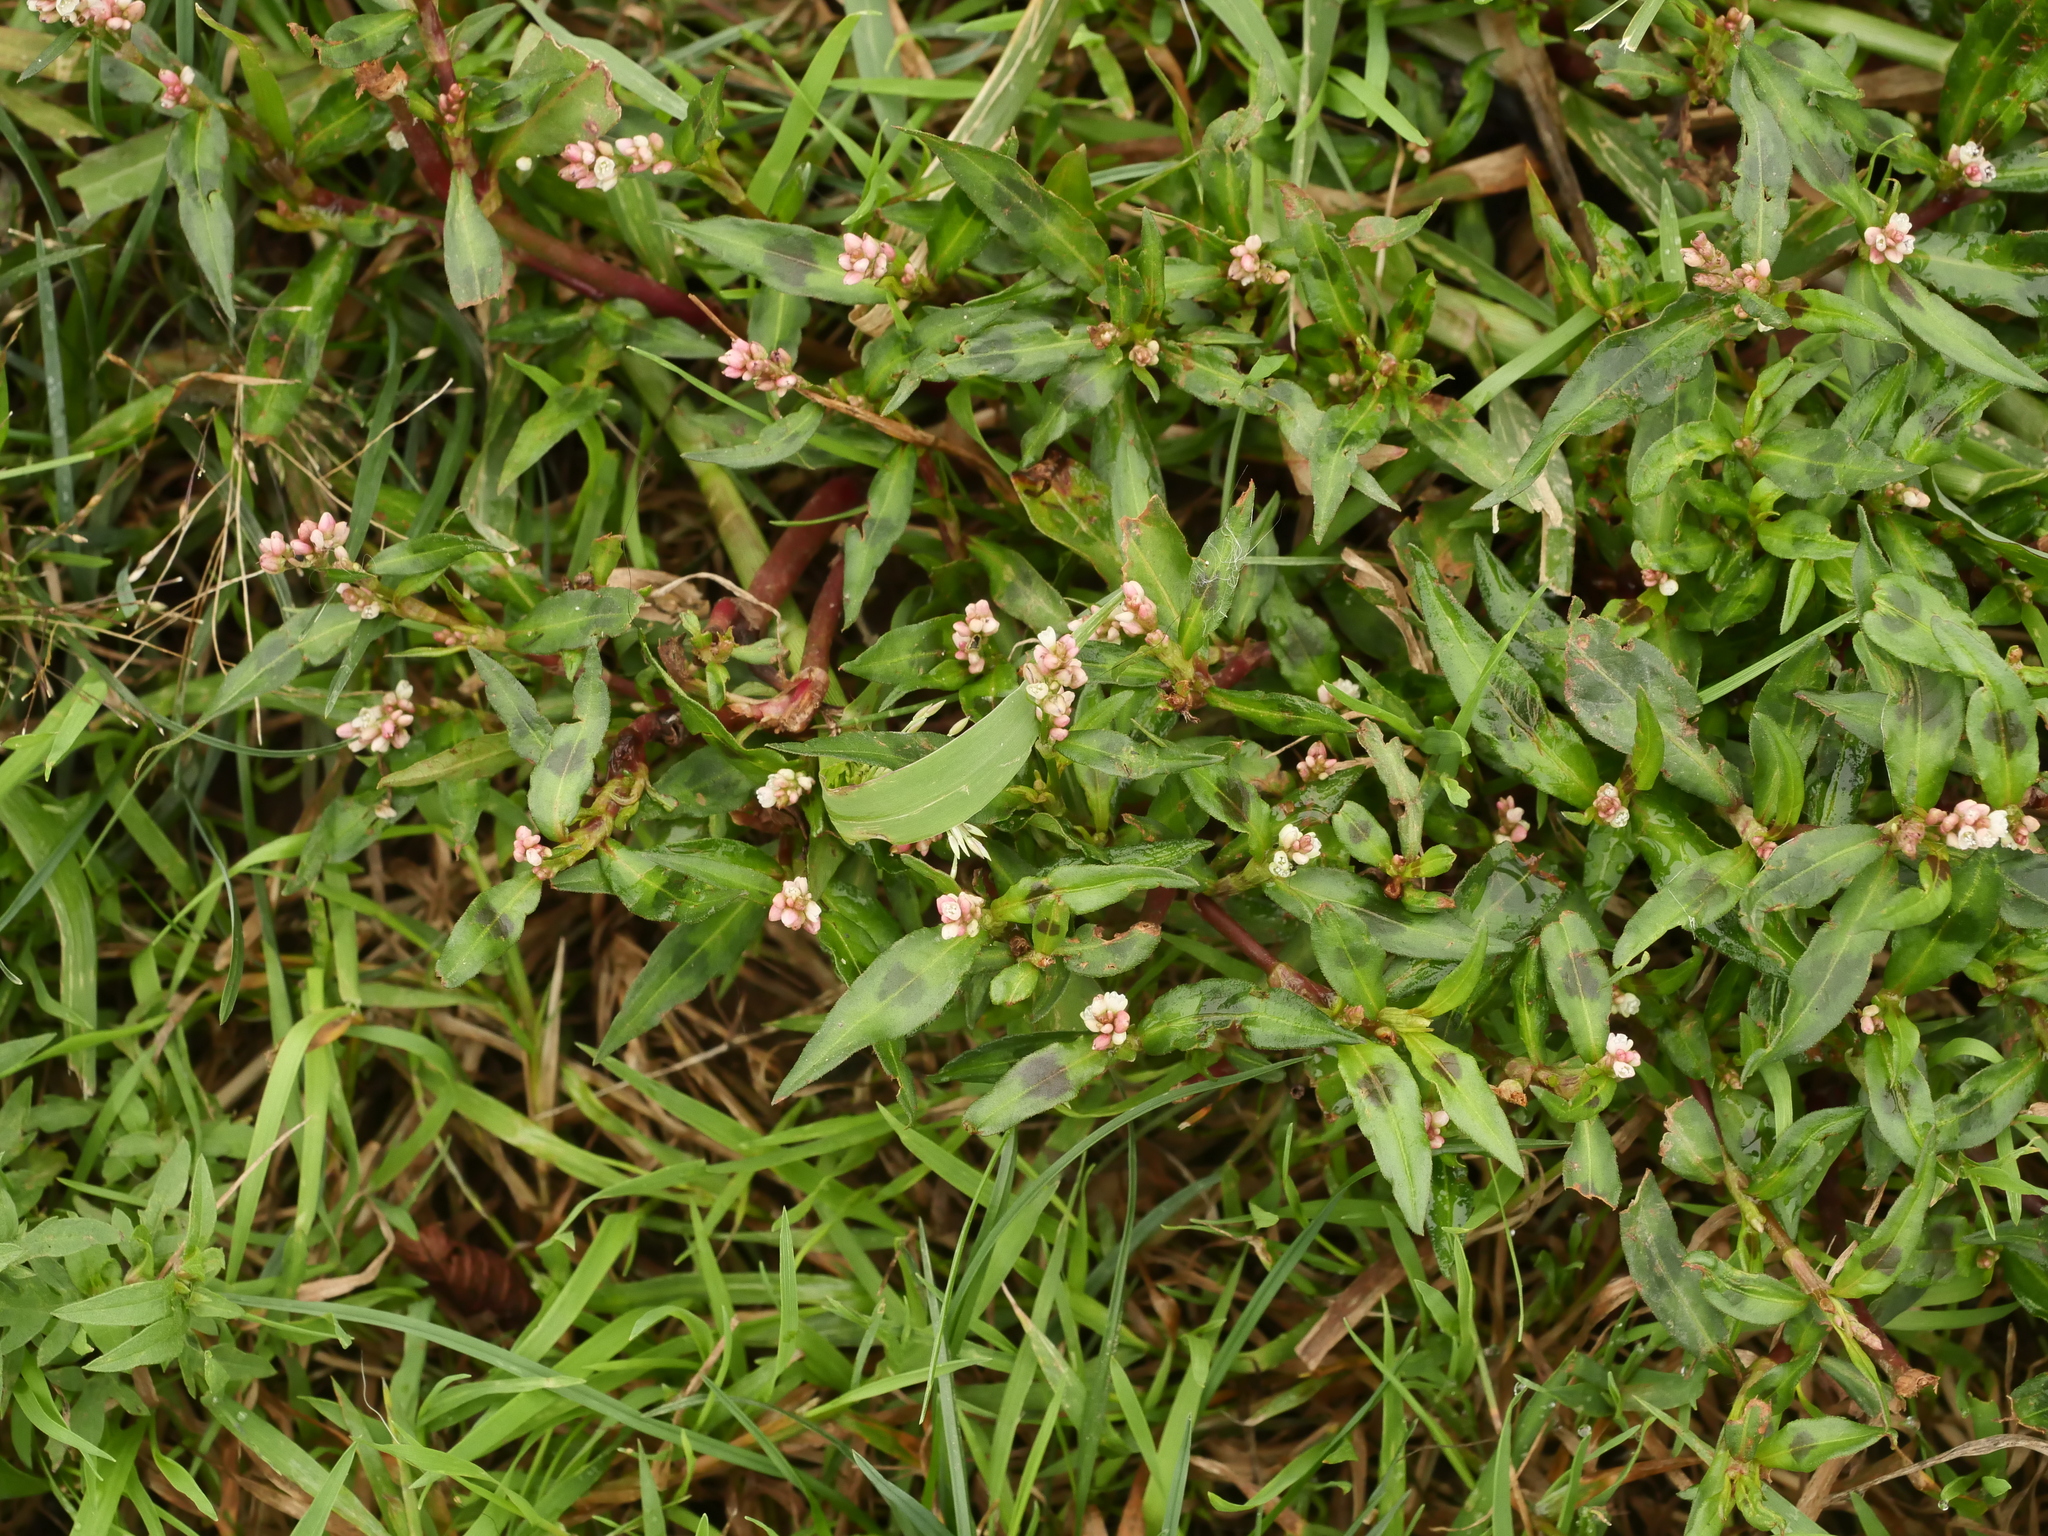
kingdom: Plantae
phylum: Tracheophyta
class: Magnoliopsida
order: Caryophyllales
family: Polygonaceae
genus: Persicaria
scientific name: Persicaria maculosa
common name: Redshank
